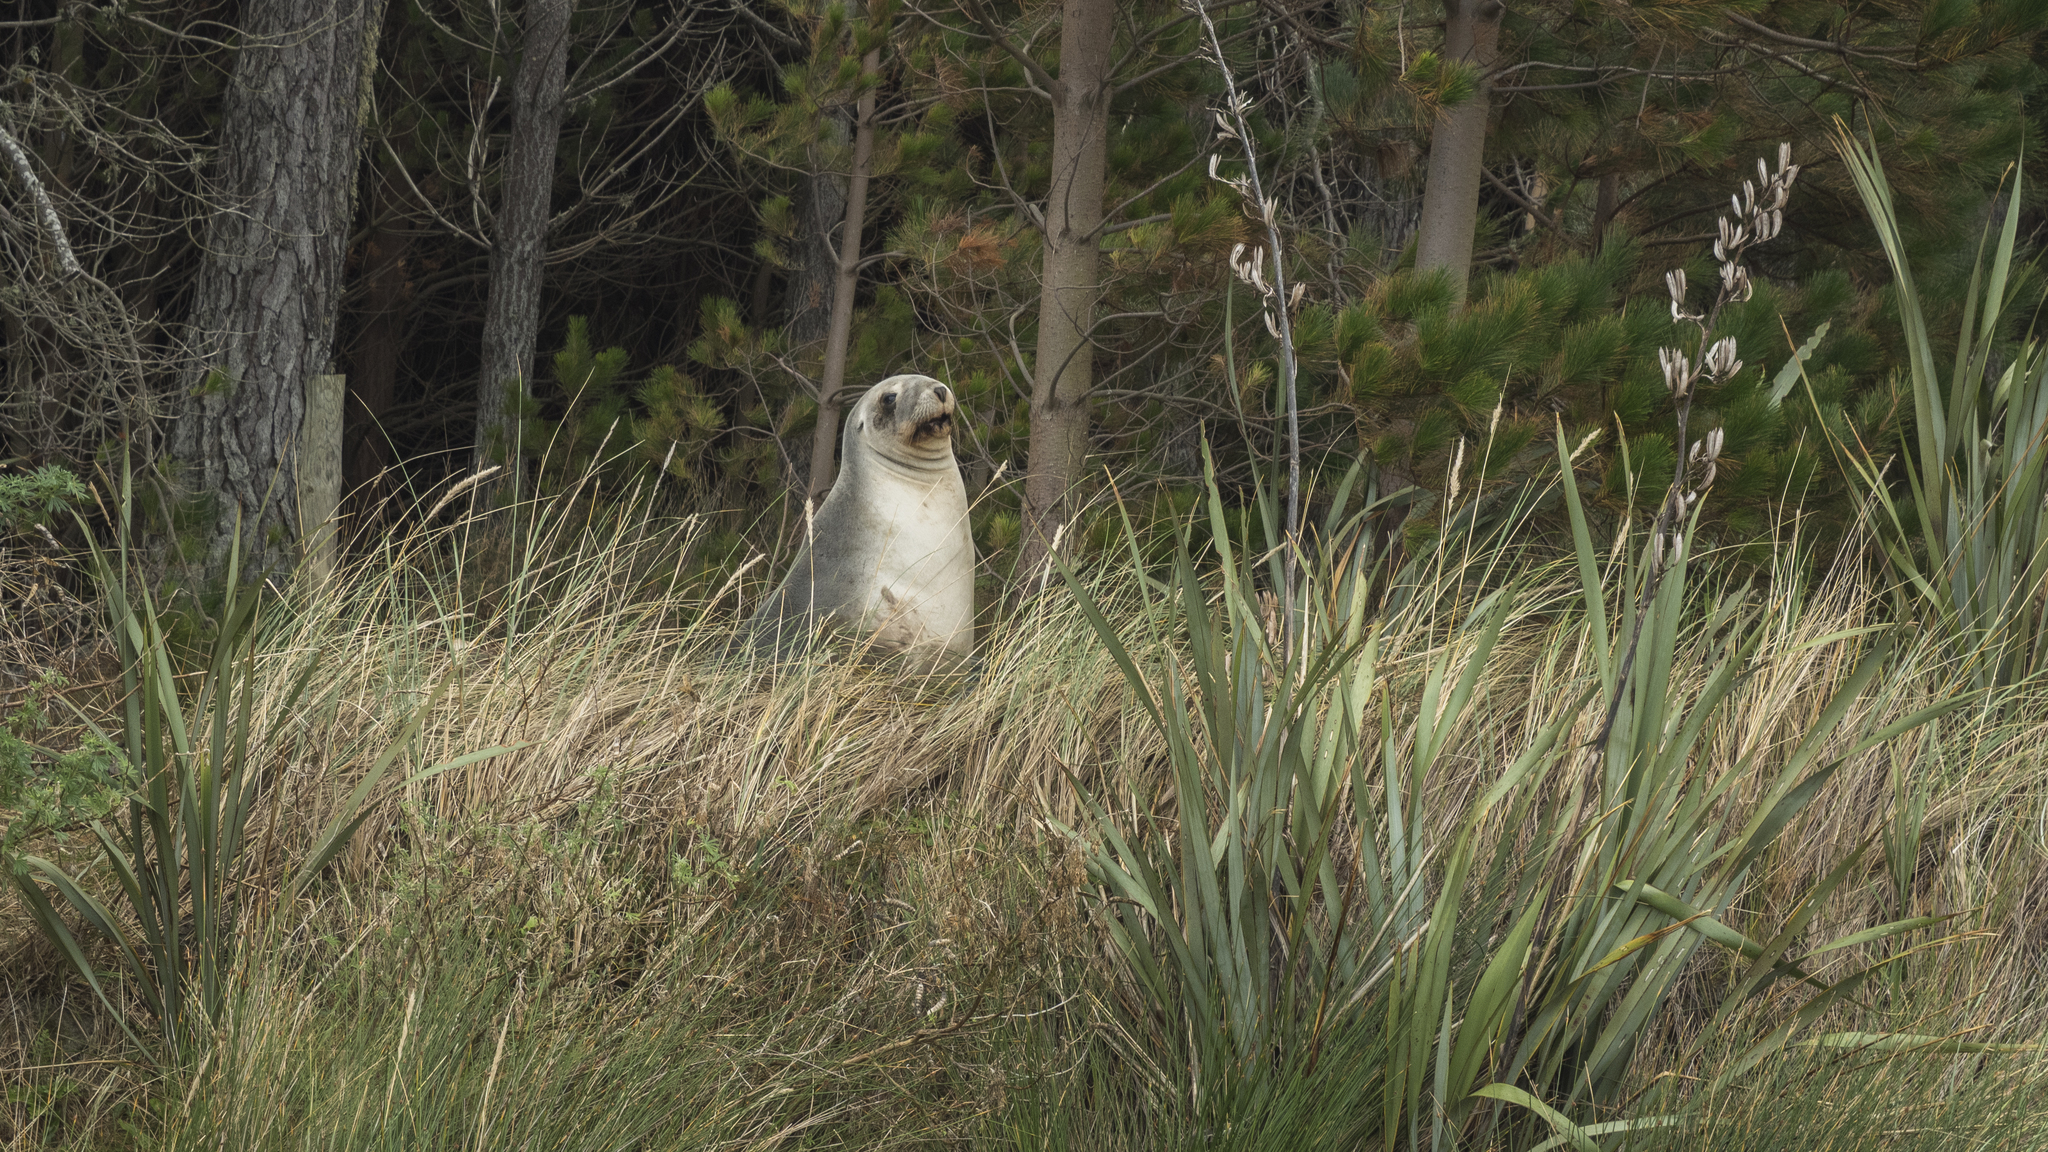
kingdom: Animalia
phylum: Chordata
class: Mammalia
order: Carnivora
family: Otariidae
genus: Phocarctos
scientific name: Phocarctos hookeri
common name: New zealand sea lion
